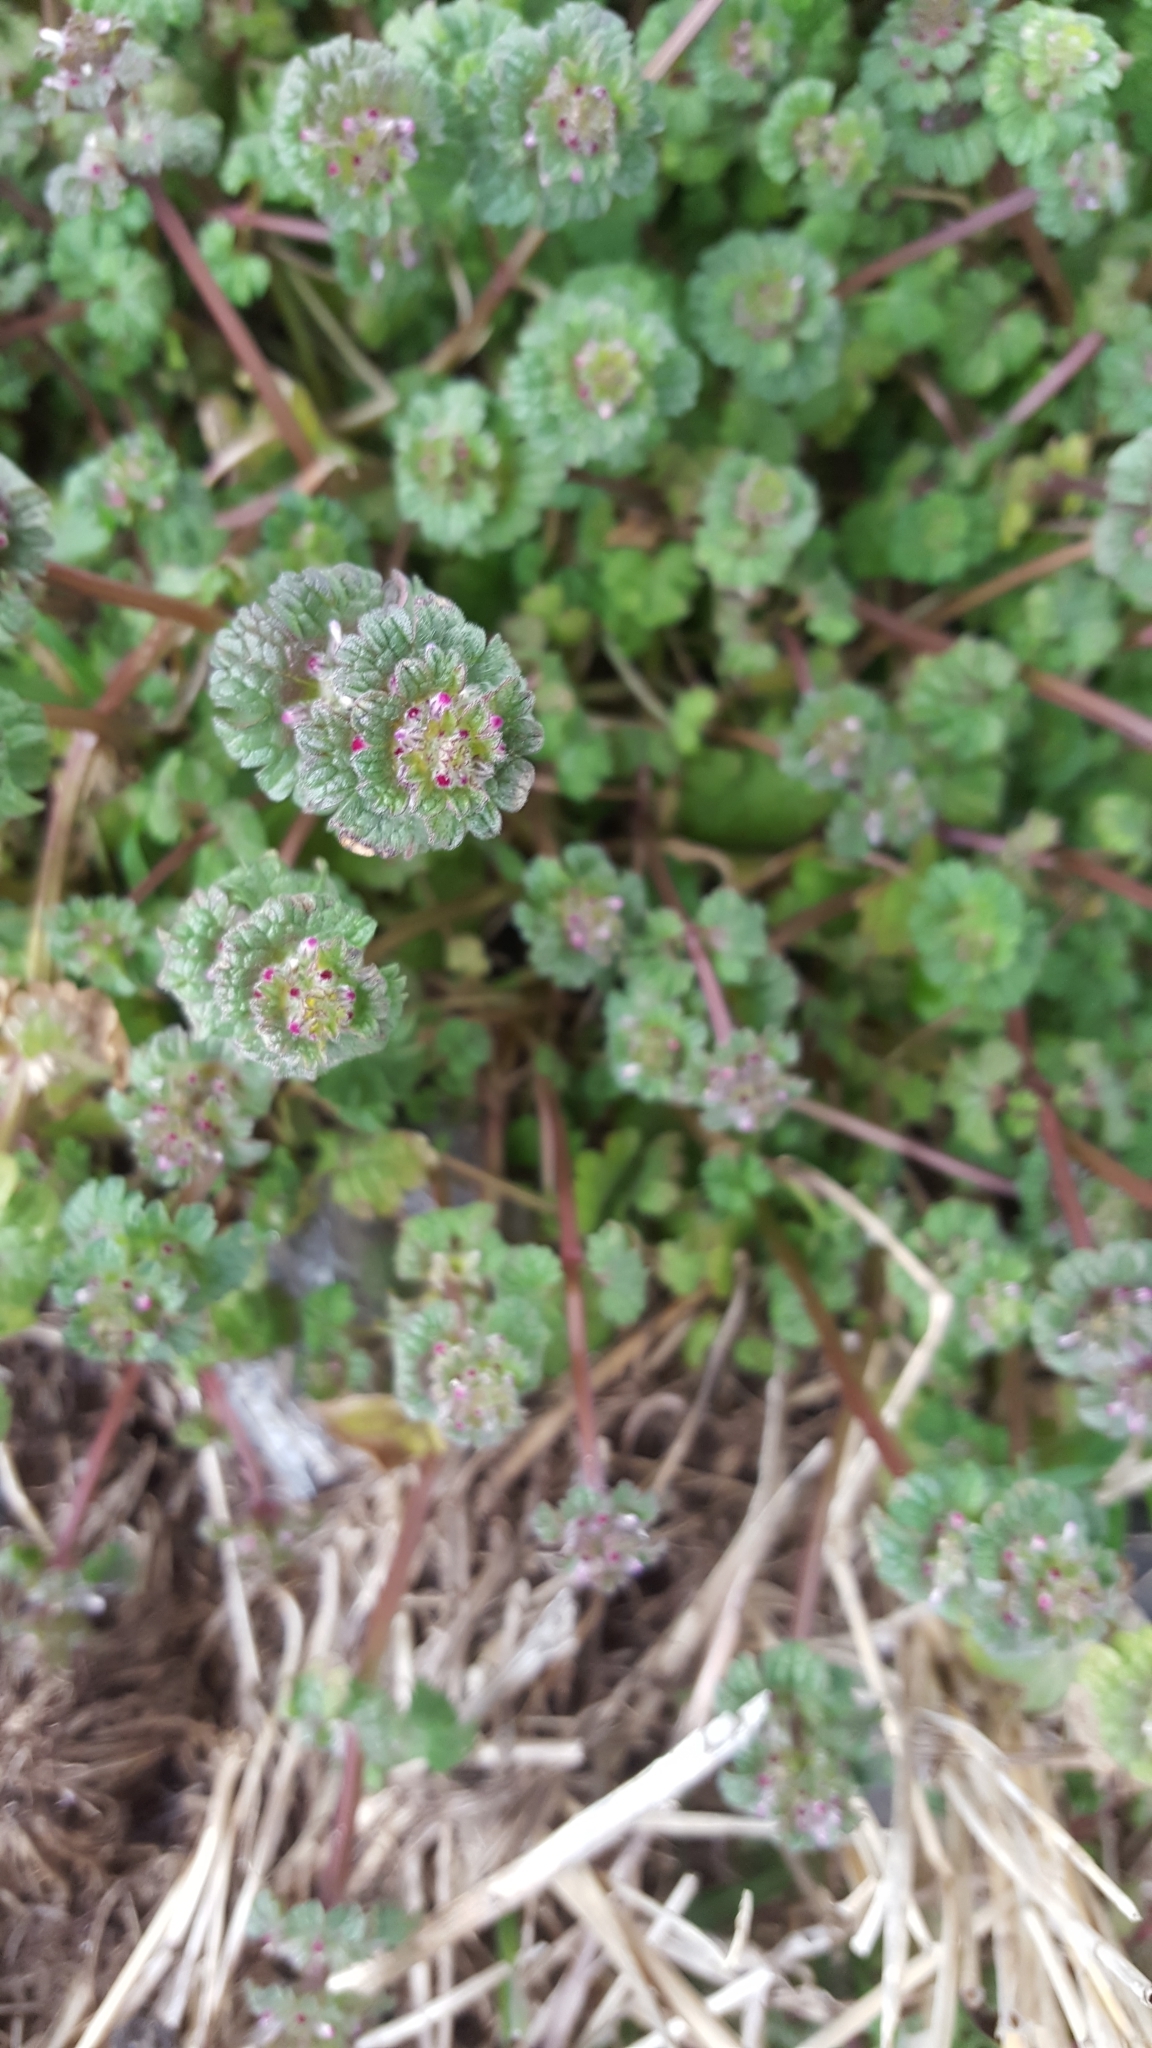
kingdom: Plantae
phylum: Tracheophyta
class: Magnoliopsida
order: Lamiales
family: Lamiaceae
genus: Lamium
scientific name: Lamium amplexicaule
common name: Henbit dead-nettle
